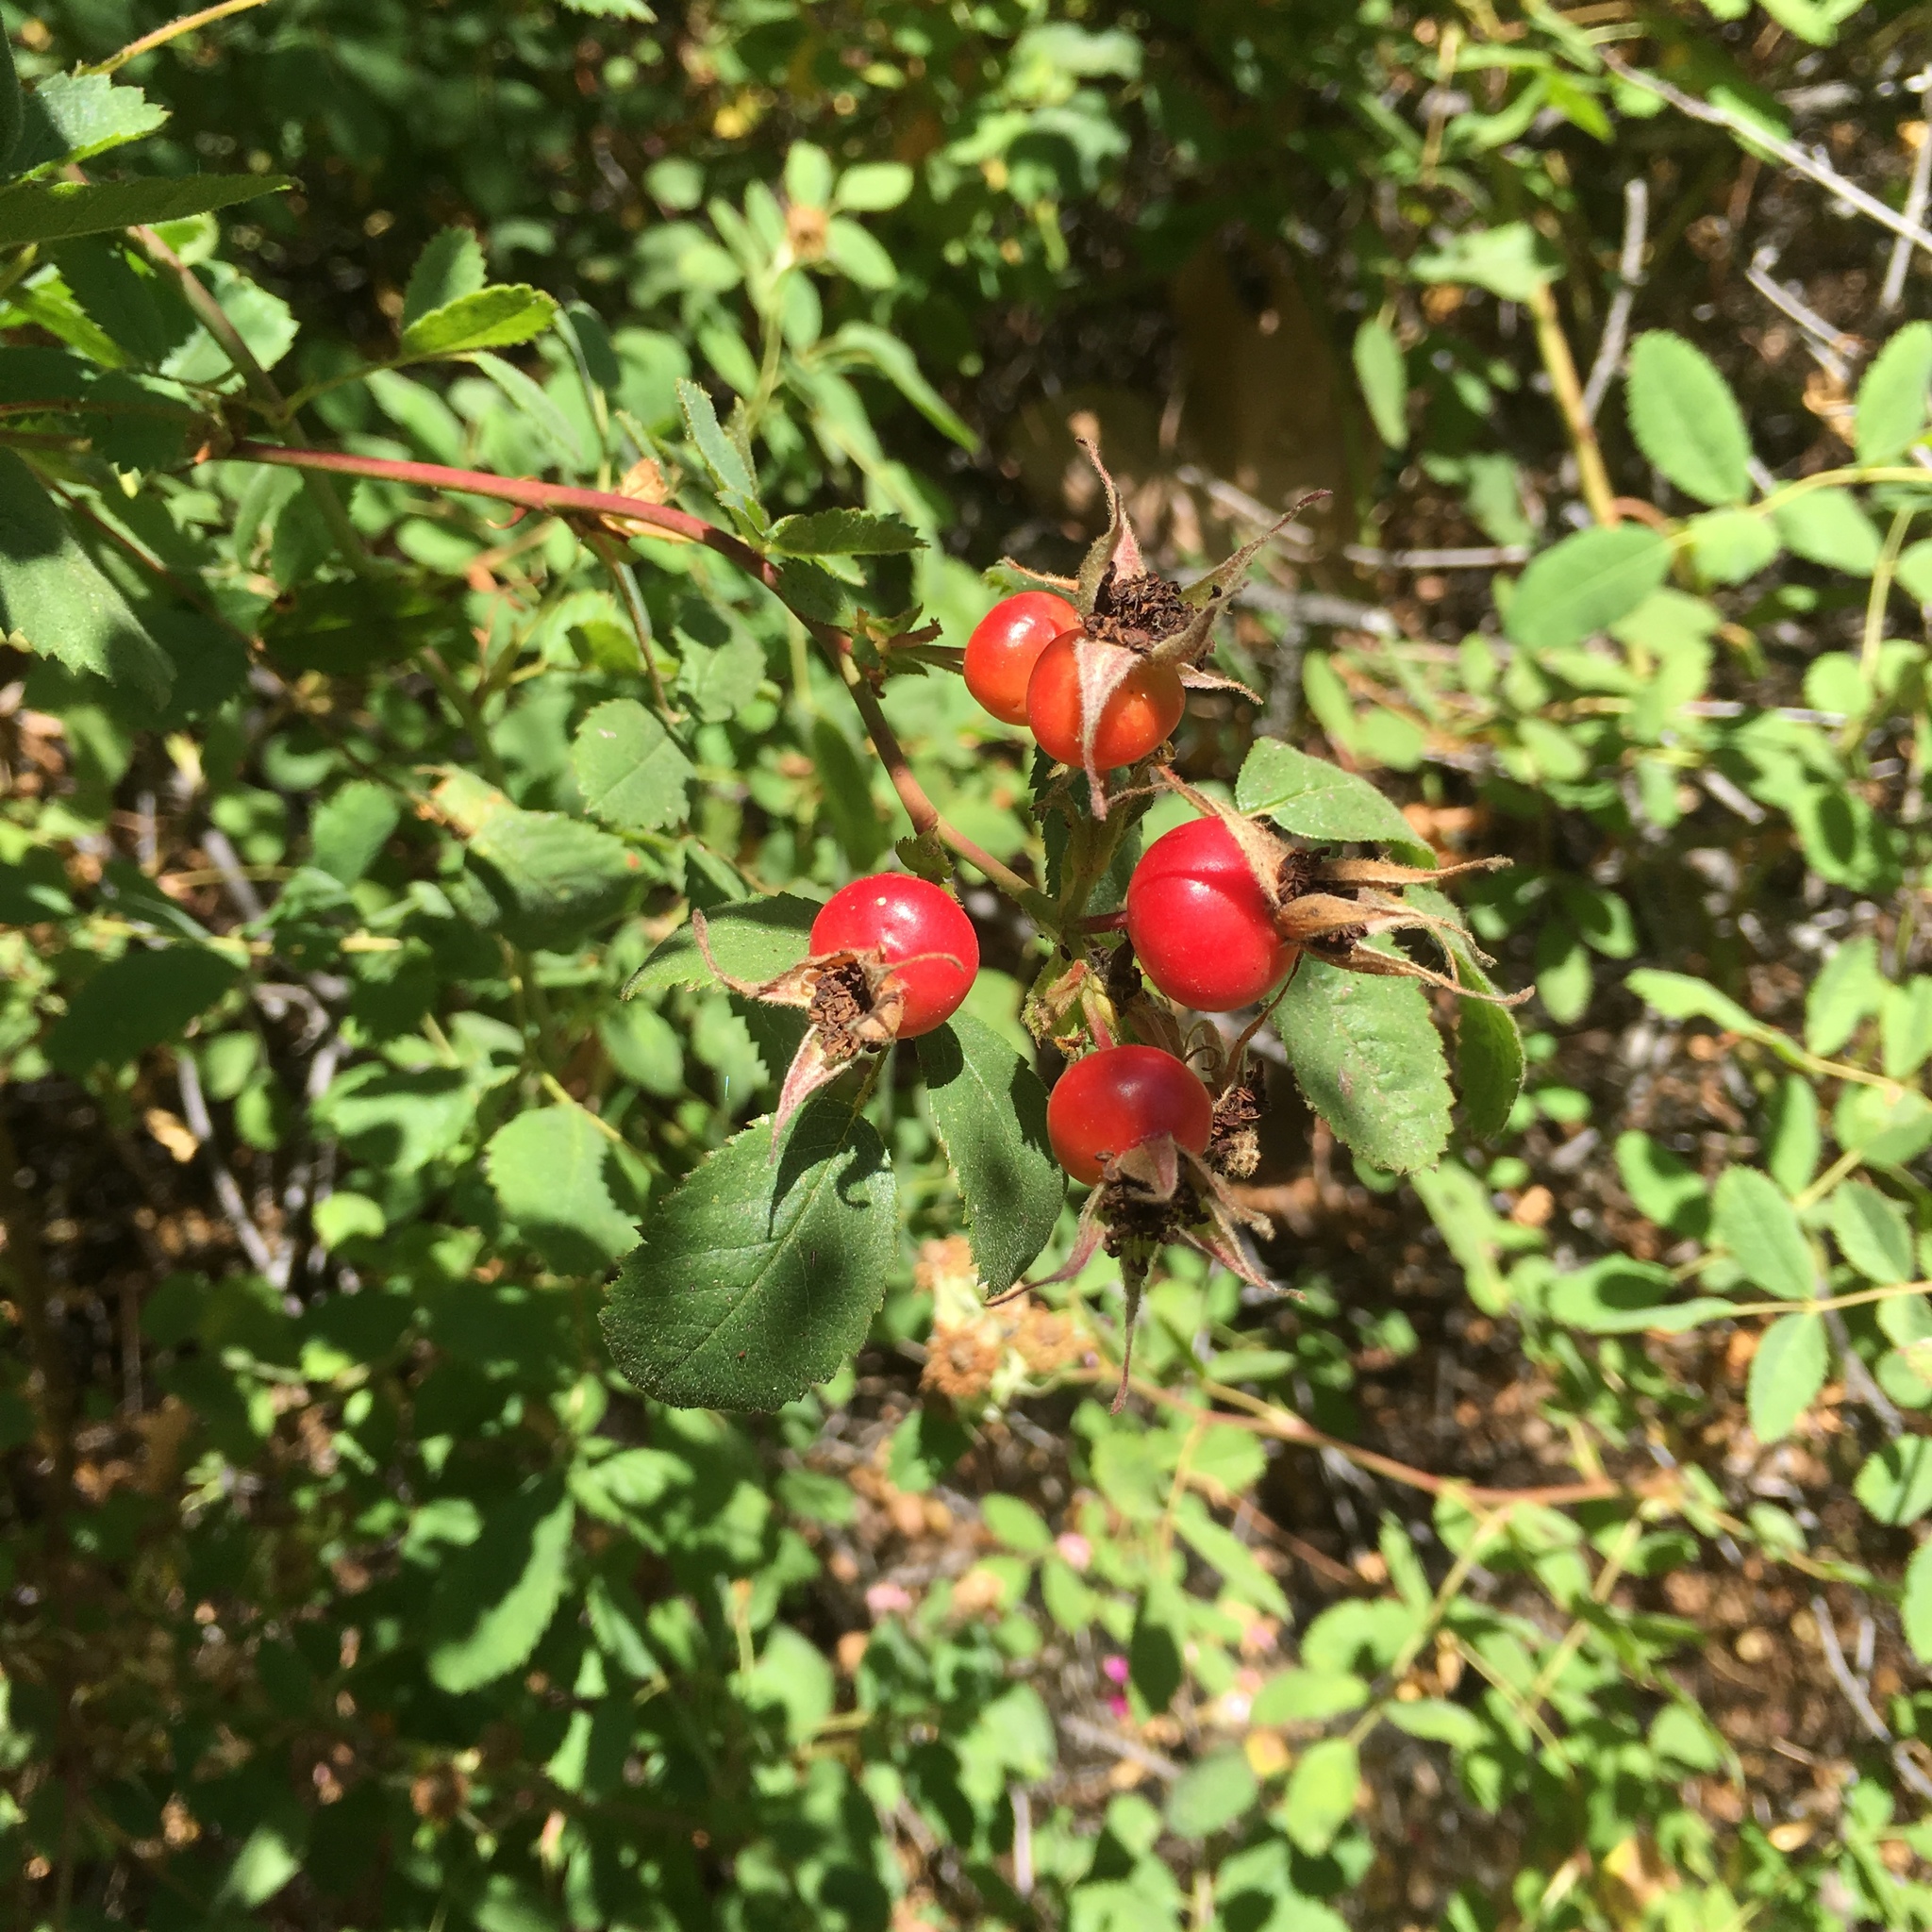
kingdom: Plantae
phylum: Tracheophyta
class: Magnoliopsida
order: Rosales
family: Rosaceae
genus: Rosa
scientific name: Rosa californica
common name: California rose
